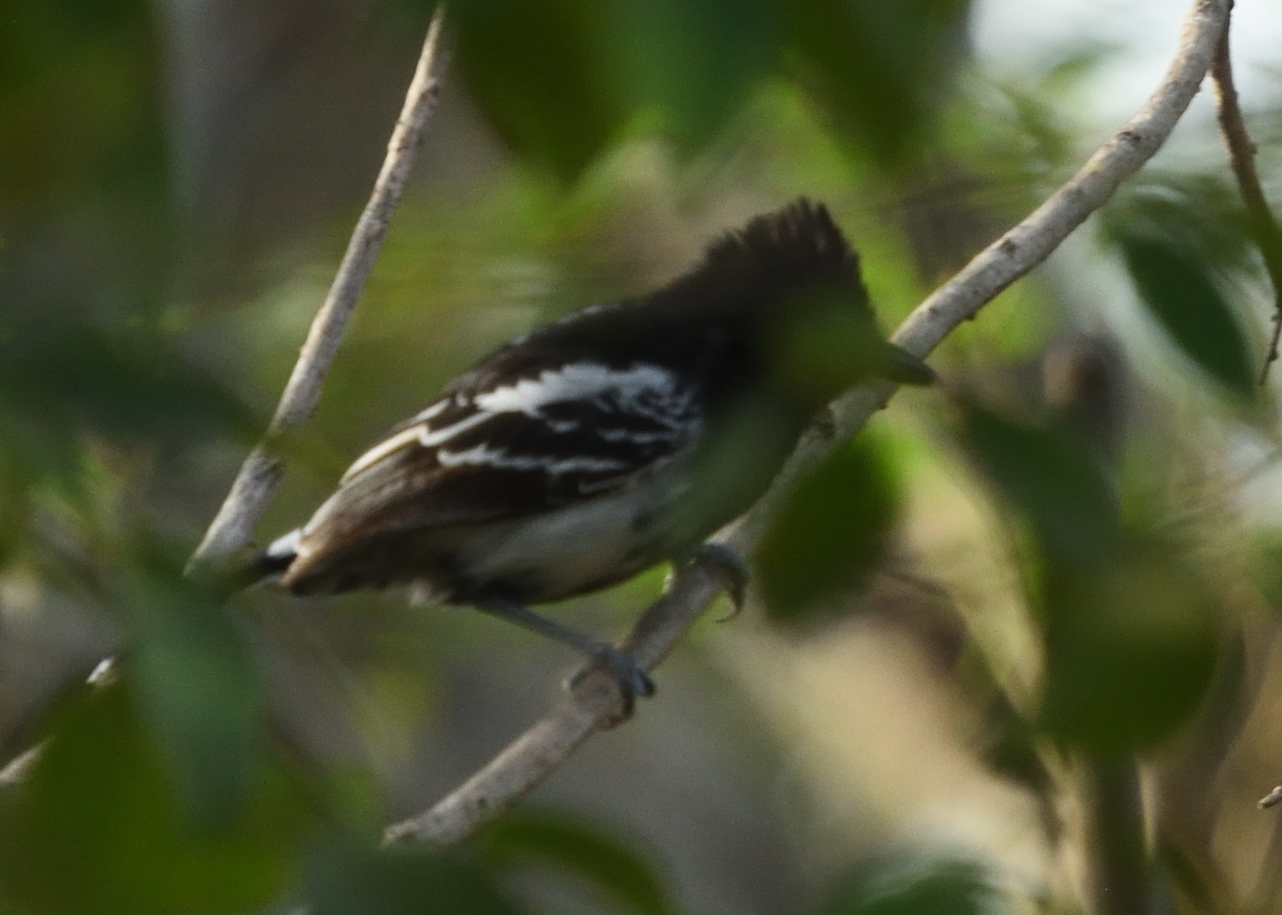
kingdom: Animalia
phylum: Chordata
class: Aves
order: Passeriformes
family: Thamnophilidae
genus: Thamnophilus
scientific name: Thamnophilus melanonotus
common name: Black-backed antshrike
